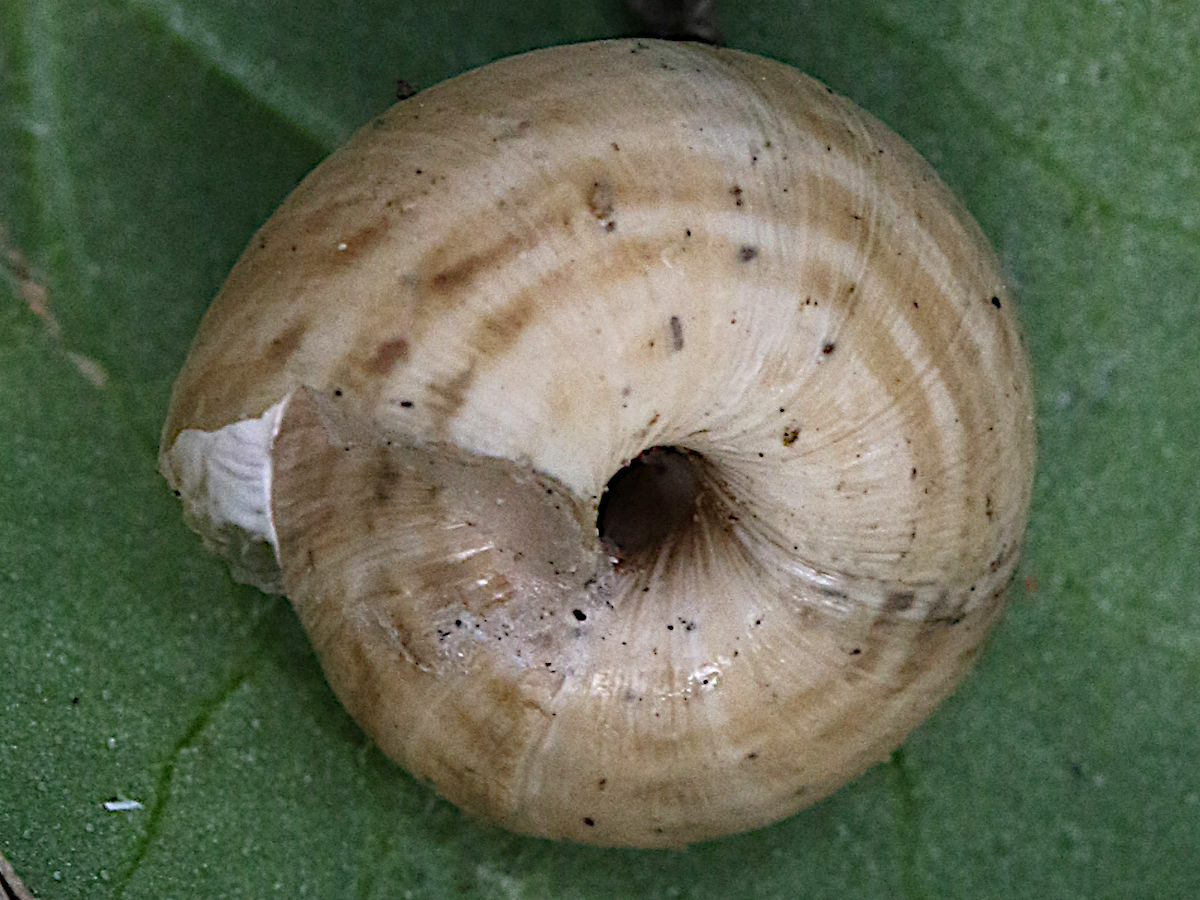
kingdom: Animalia
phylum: Mollusca
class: Gastropoda
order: Stylommatophora
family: Geomitridae
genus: Cernuella
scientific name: Cernuella virgata
